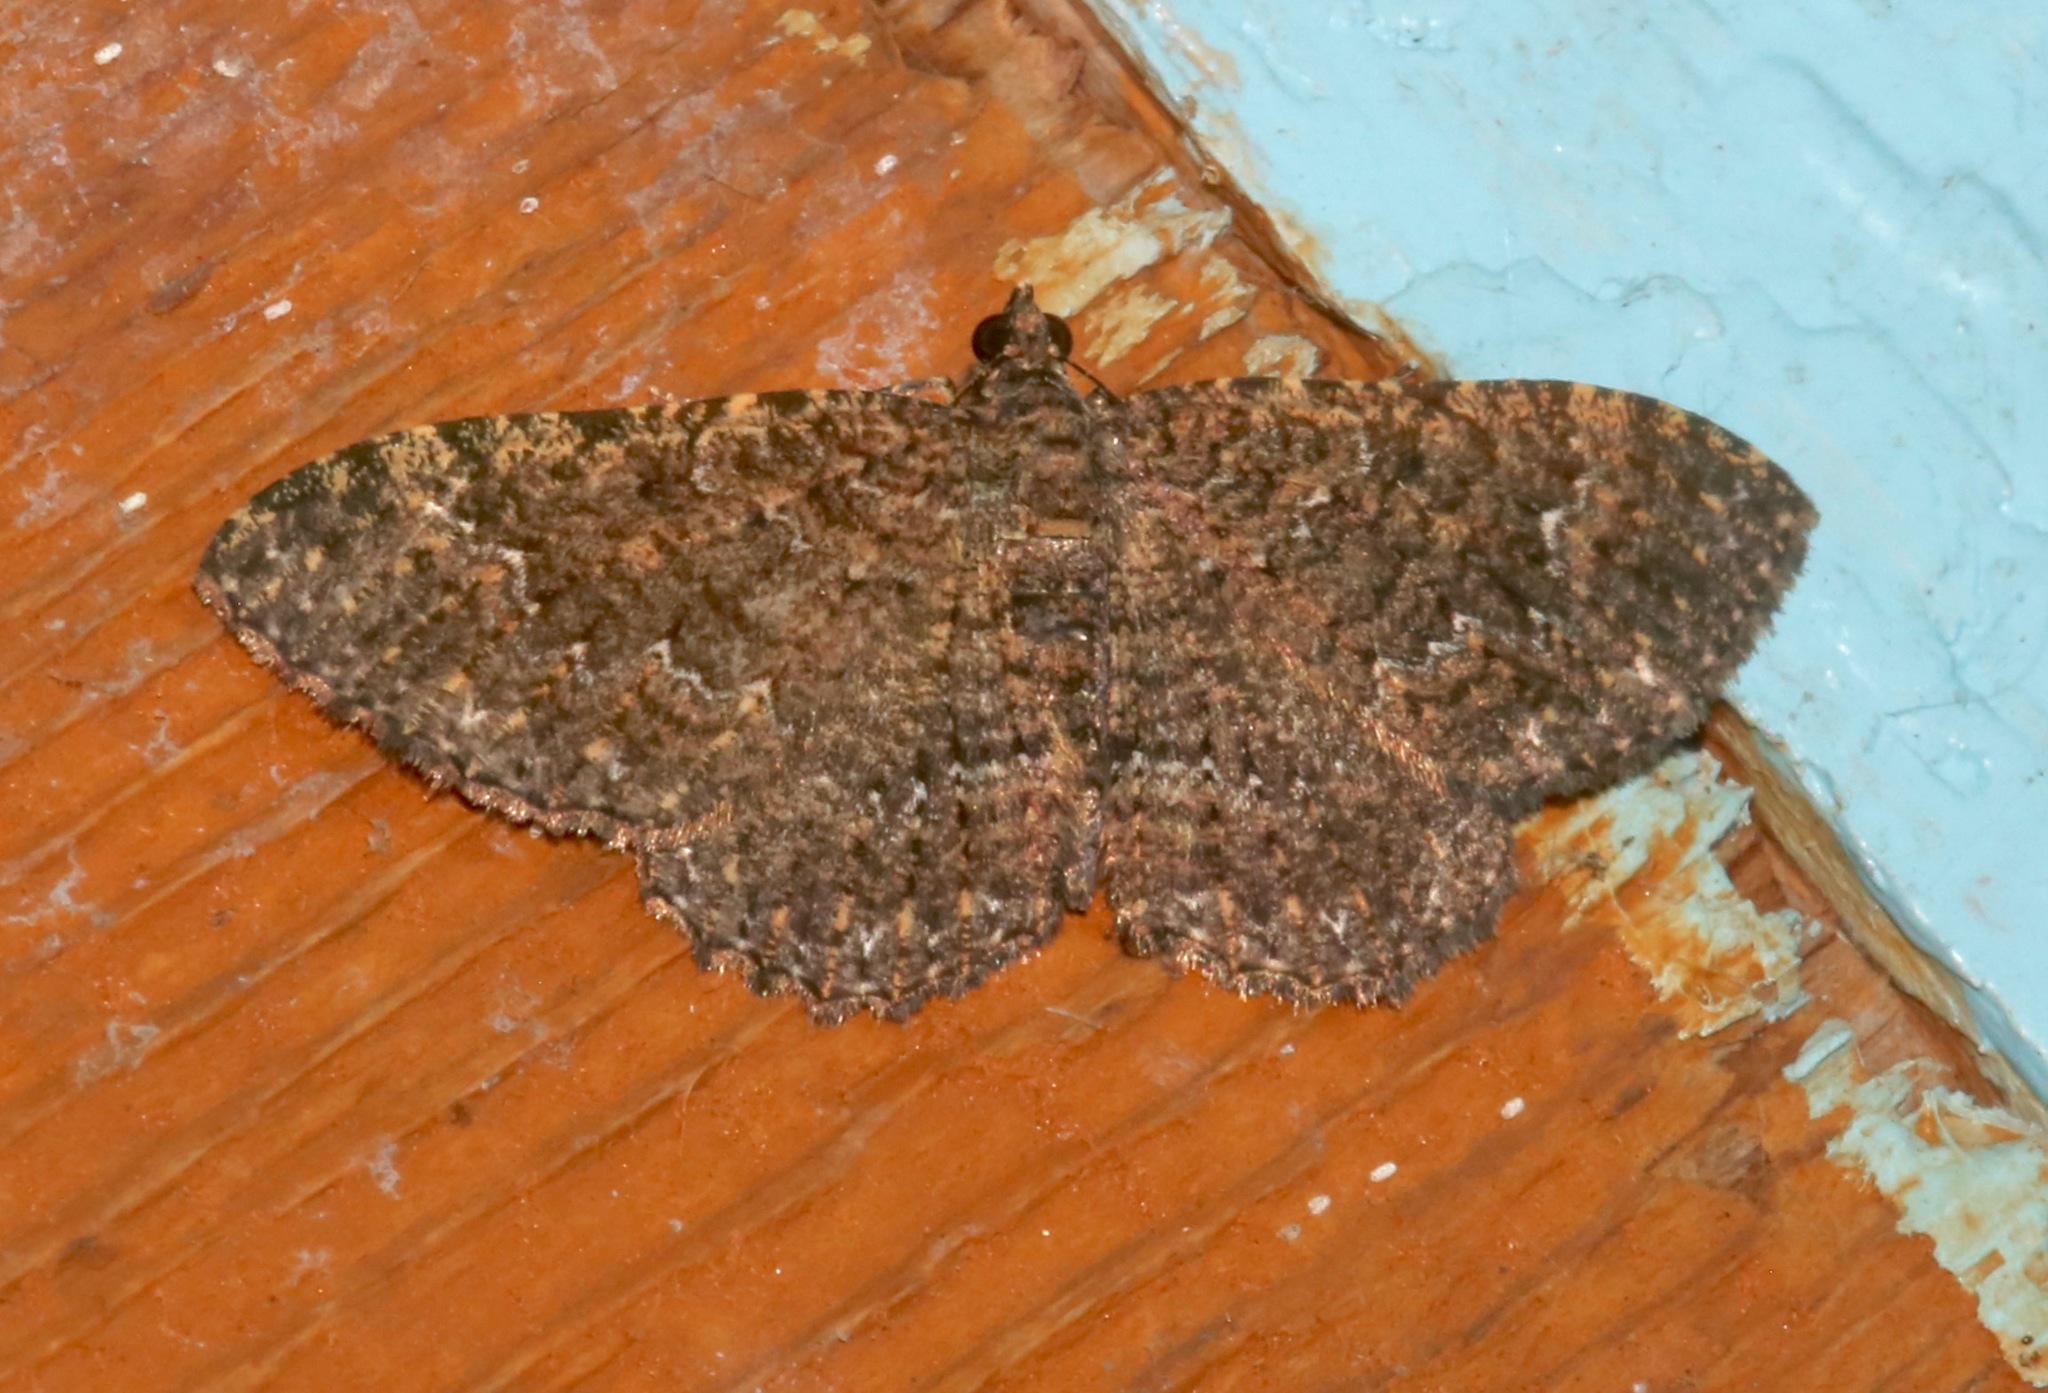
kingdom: Animalia
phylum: Arthropoda
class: Insecta
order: Lepidoptera
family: Geometridae
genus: Disclisioprocta
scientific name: Disclisioprocta stellata
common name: Somber carpet
